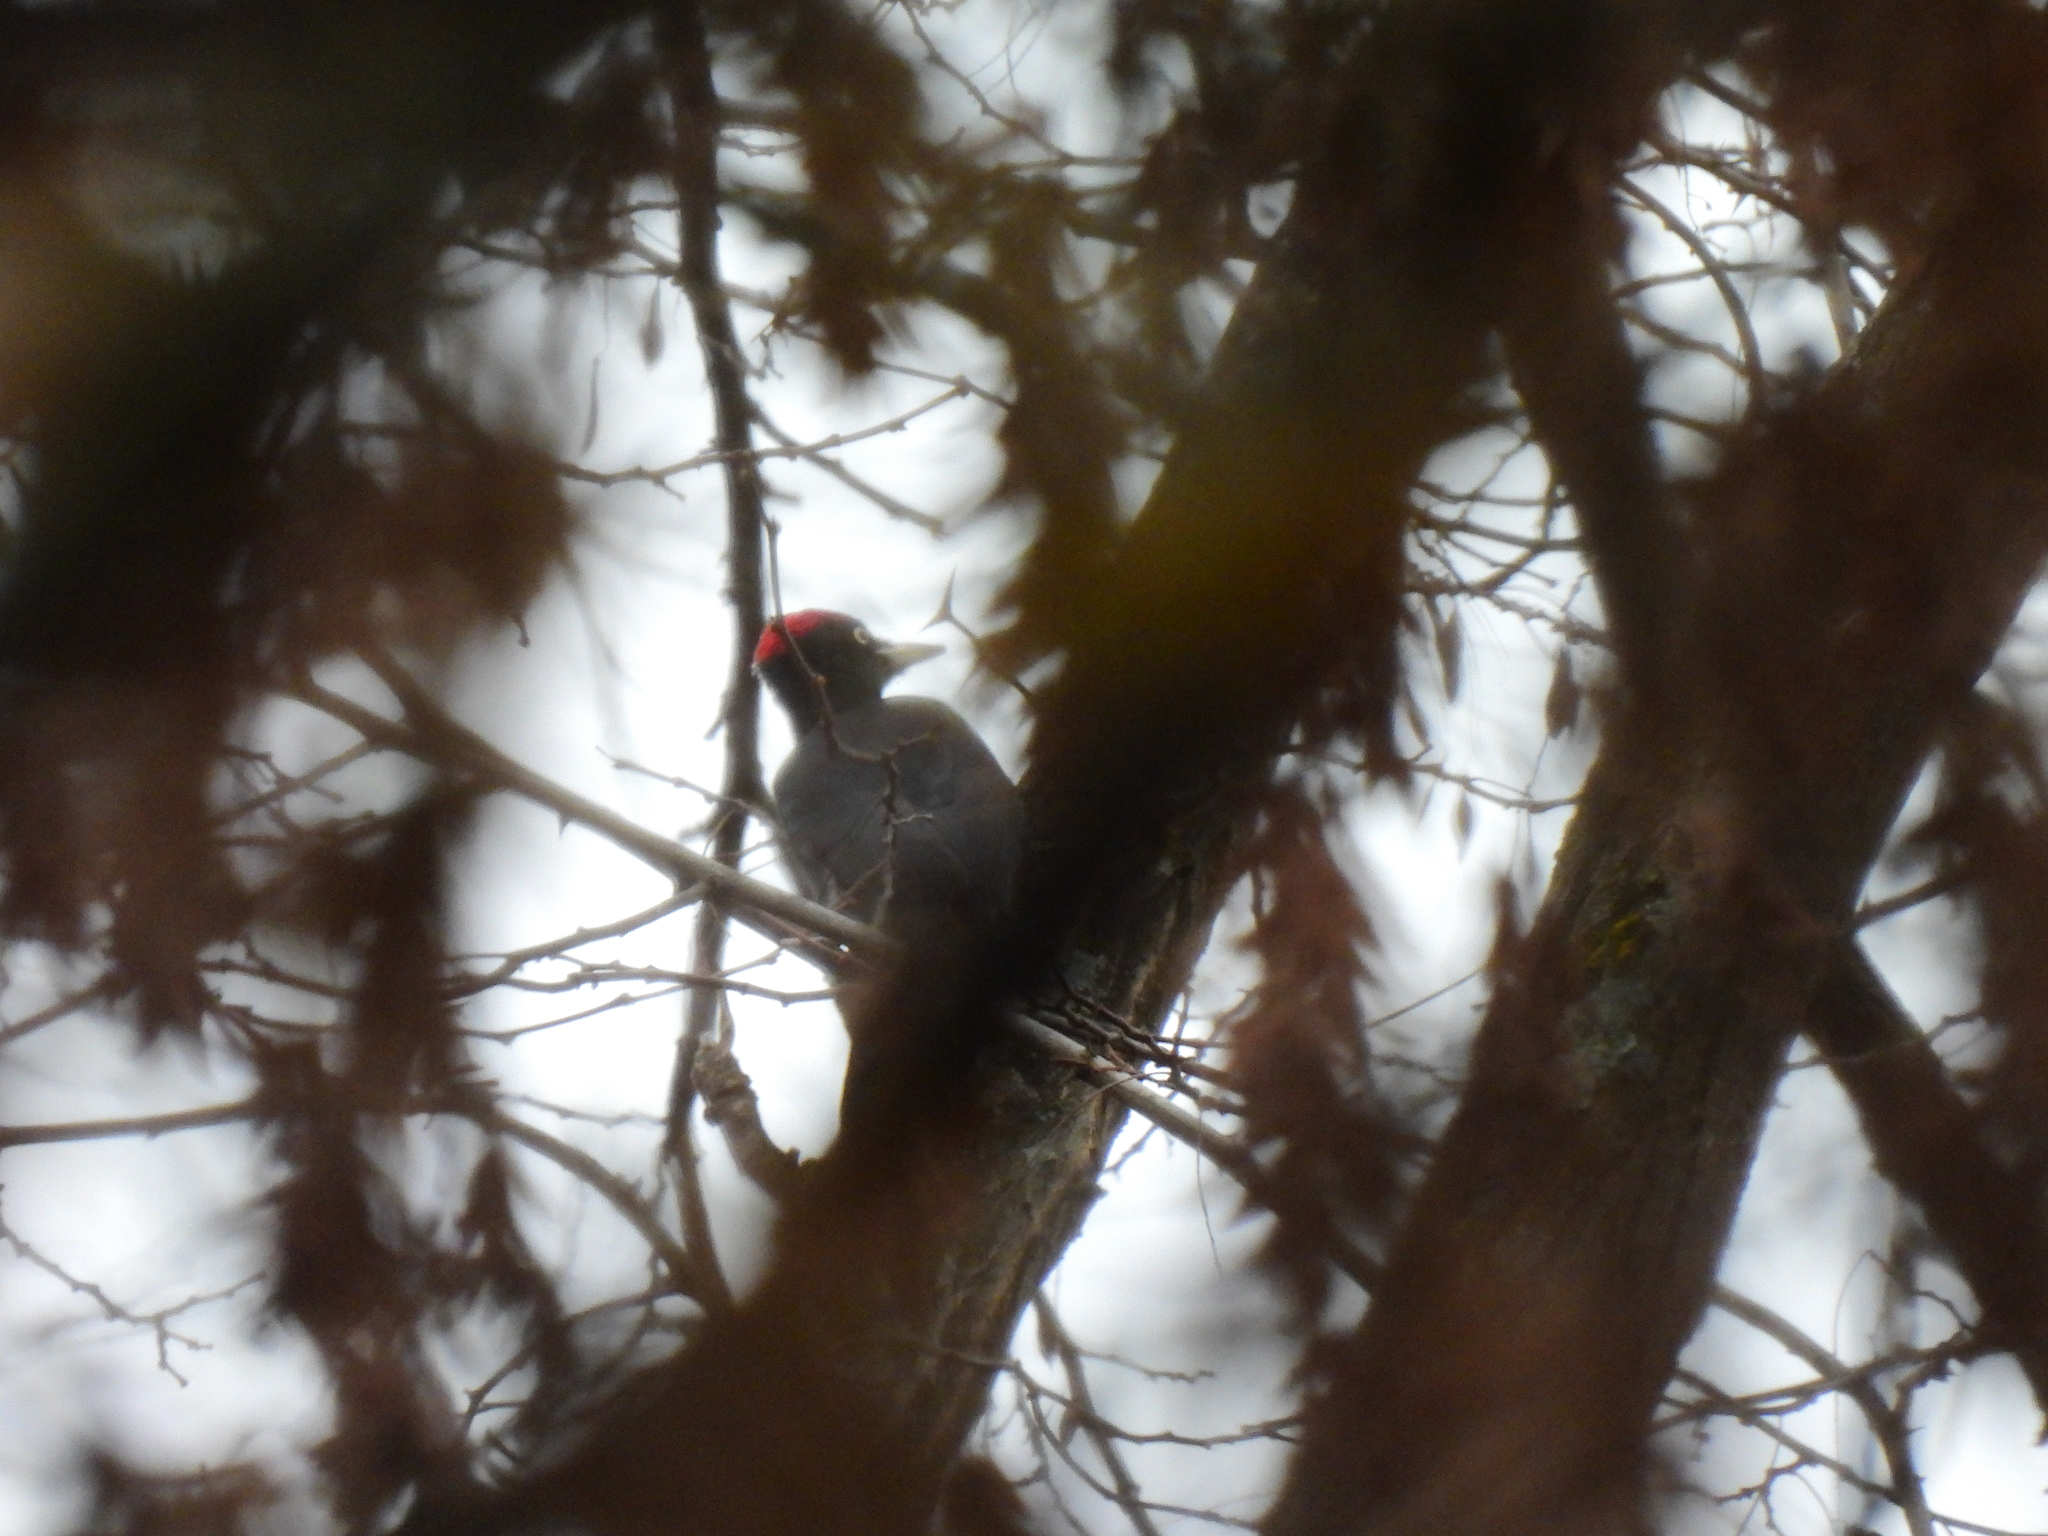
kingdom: Animalia
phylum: Chordata
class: Aves
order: Piciformes
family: Picidae
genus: Dryocopus
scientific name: Dryocopus martius
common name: Black woodpecker
